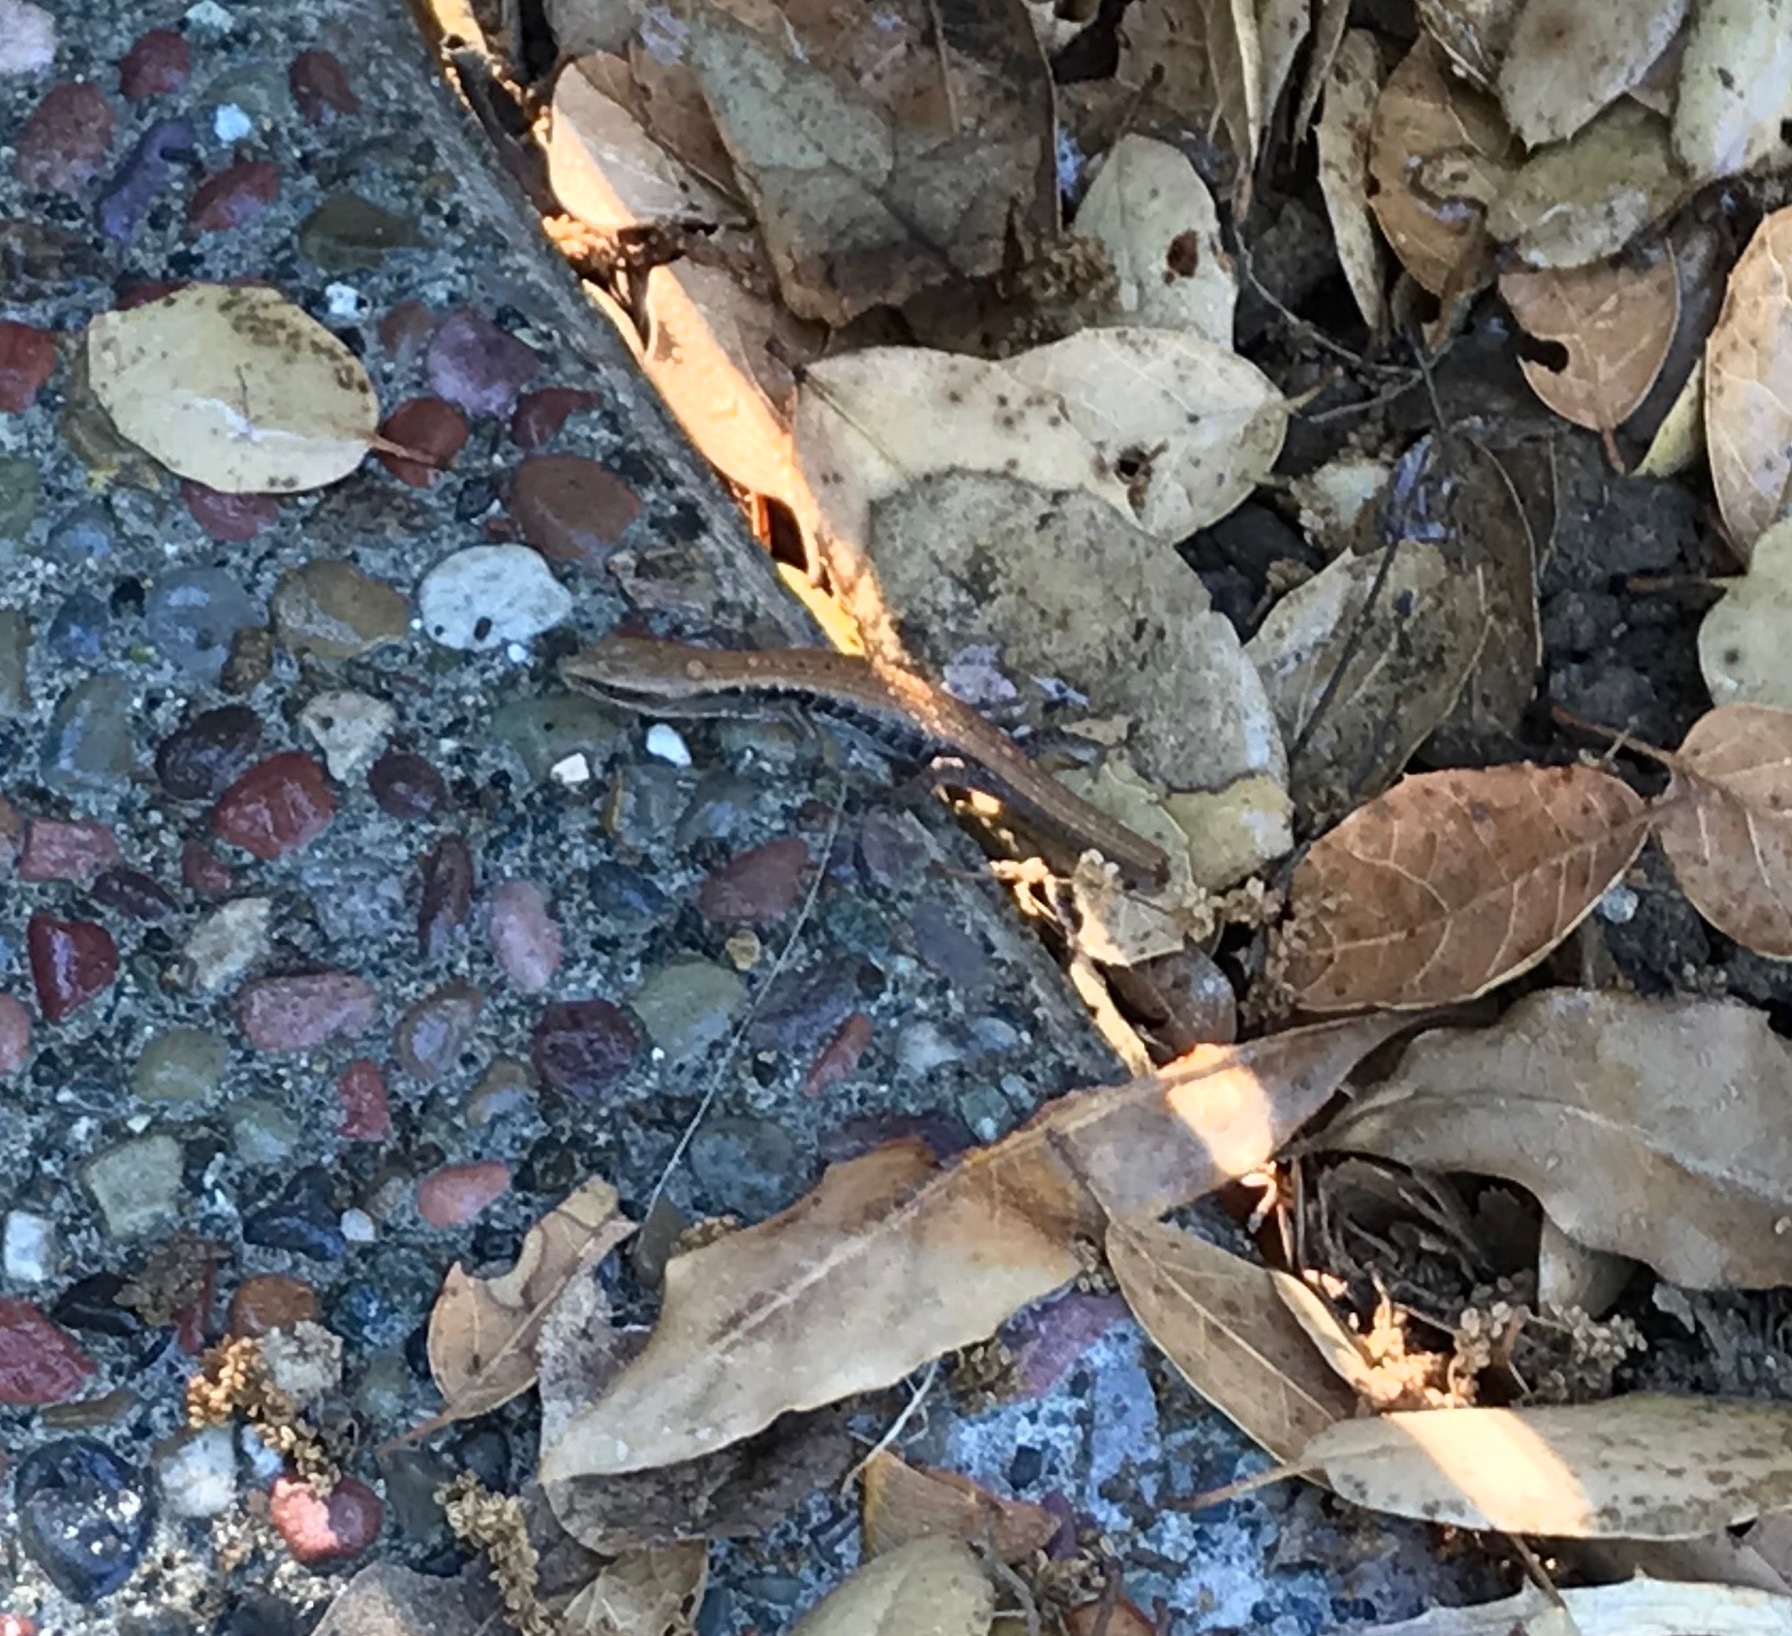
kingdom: Animalia
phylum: Chordata
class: Squamata
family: Anguidae
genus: Elgaria
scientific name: Elgaria multicarinata
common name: Southern alligator lizard
